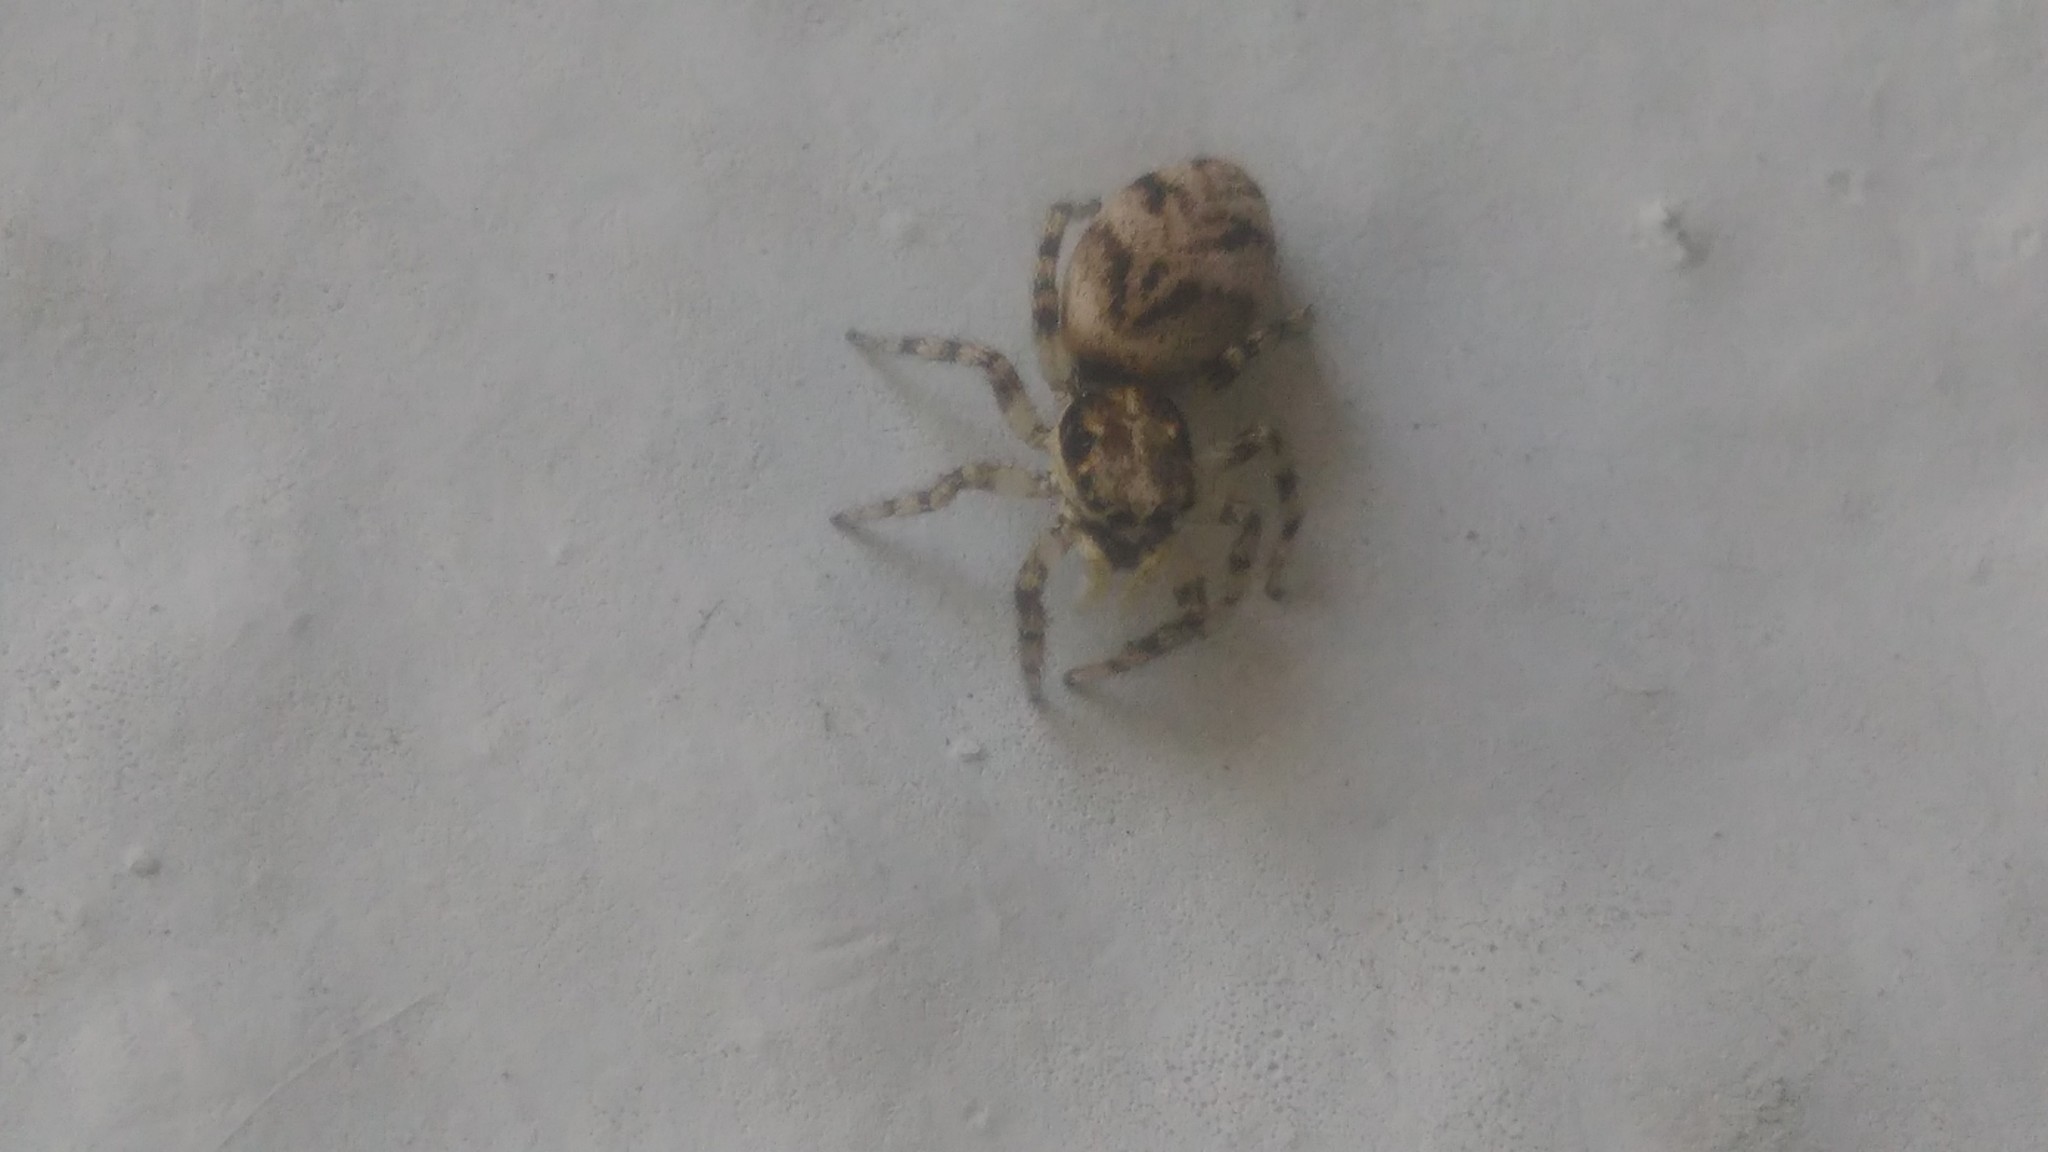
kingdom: Animalia
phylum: Arthropoda
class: Arachnida
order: Araneae
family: Salticidae
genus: Salticus
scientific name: Salticus mutabilis
